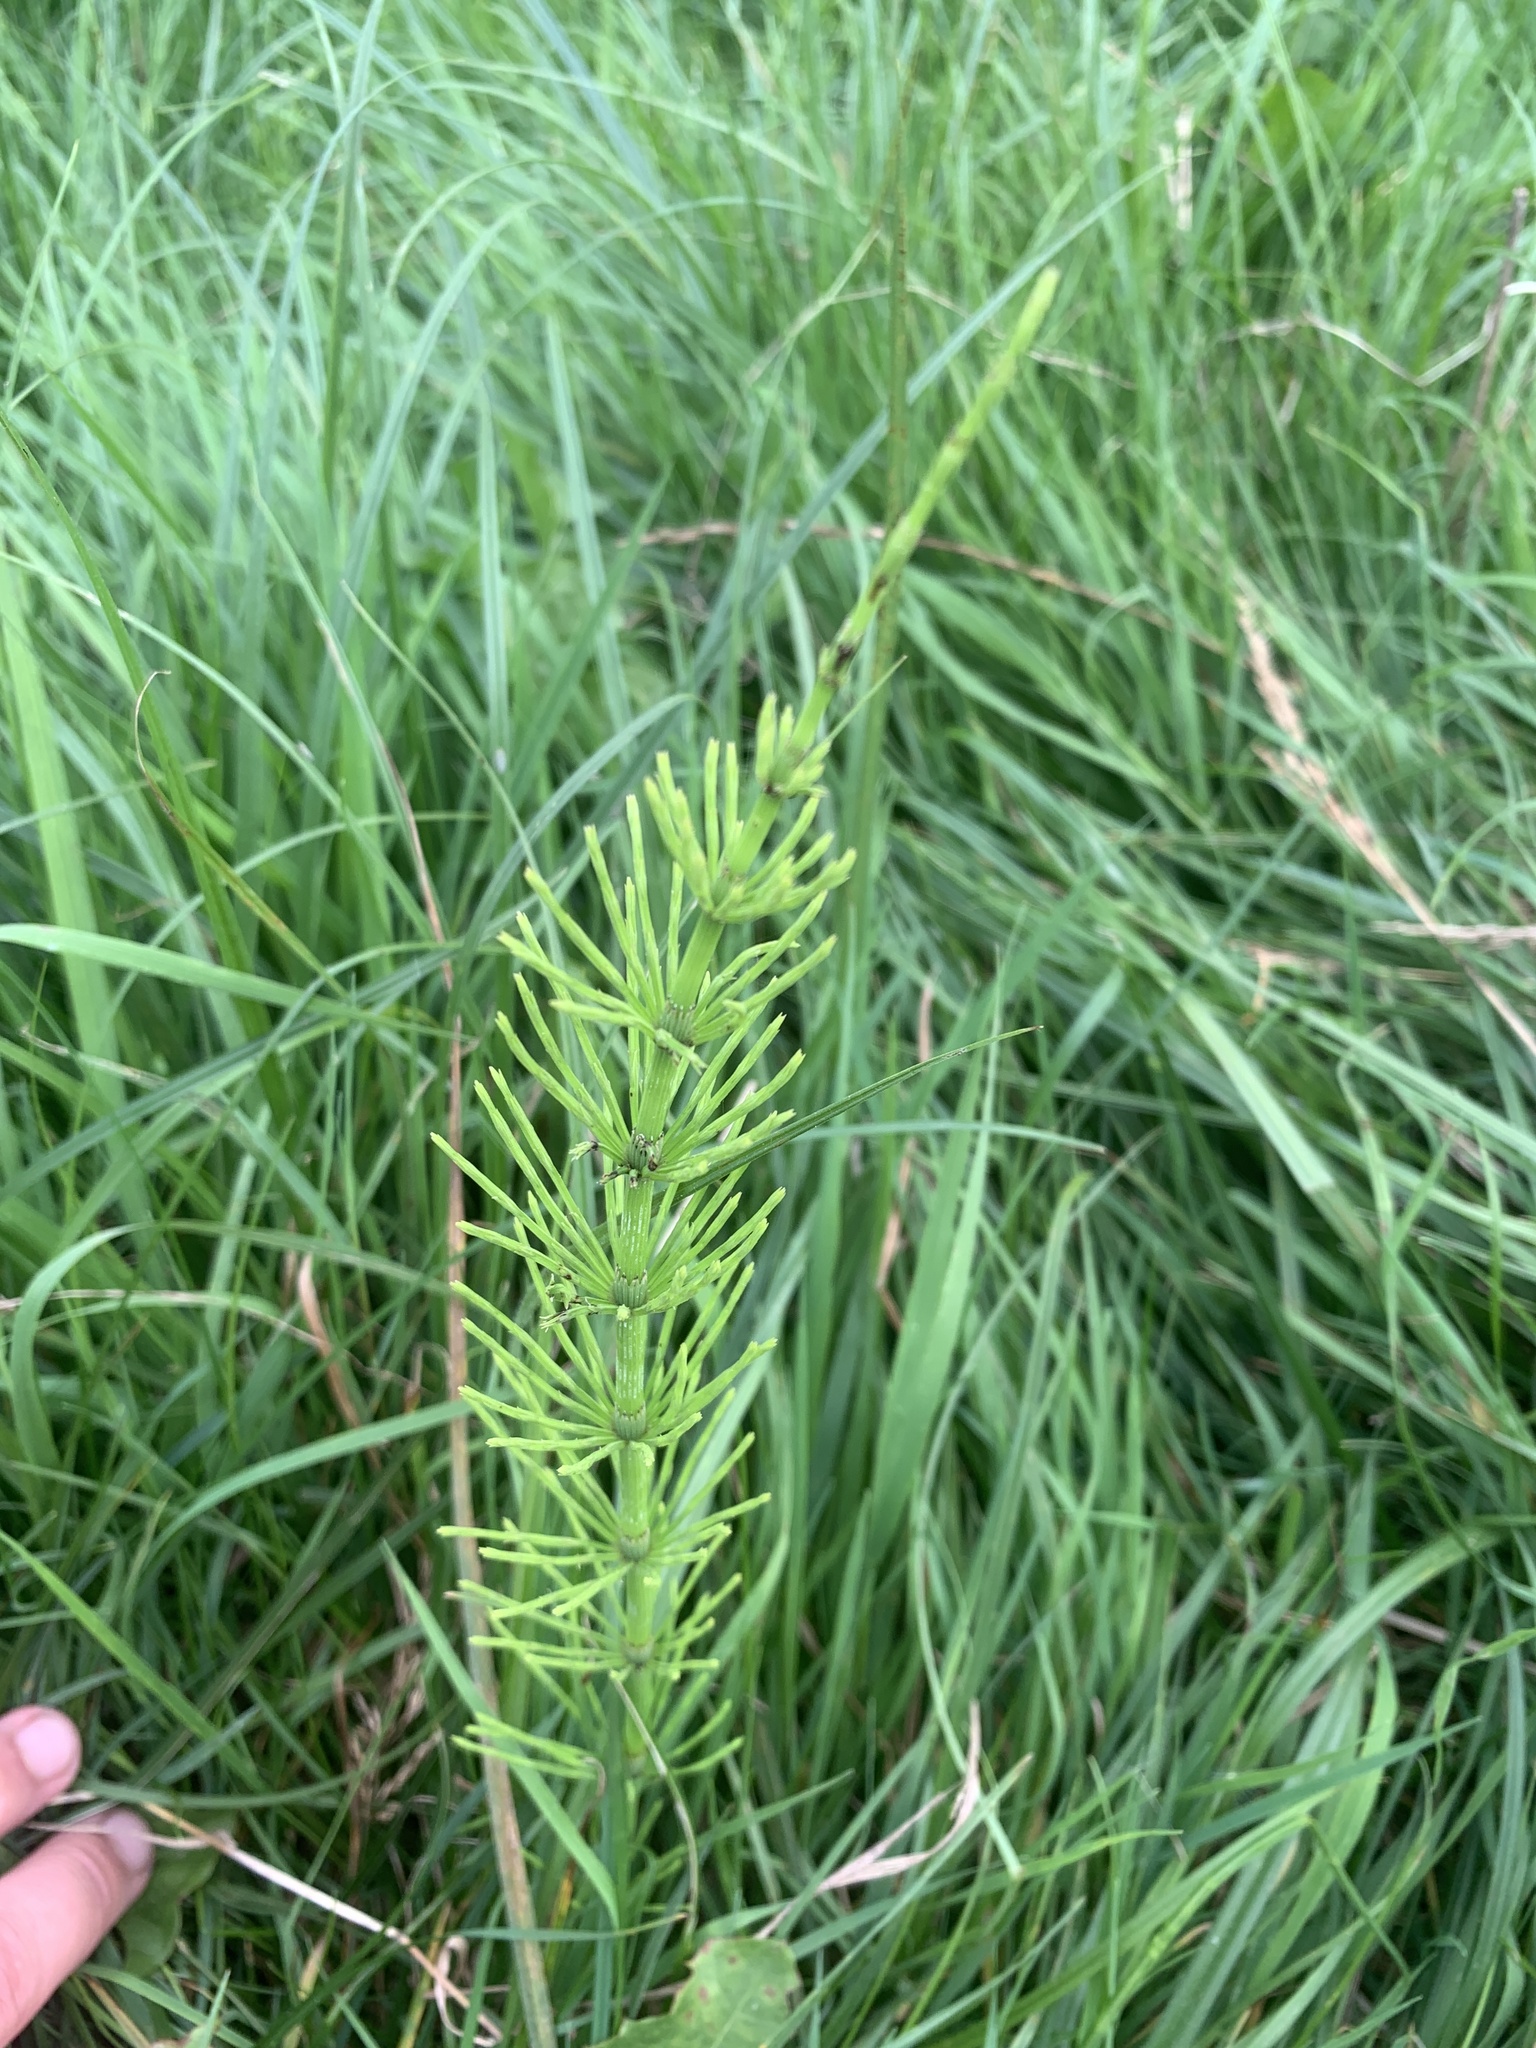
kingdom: Plantae
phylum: Tracheophyta
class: Polypodiopsida
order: Equisetales
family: Equisetaceae
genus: Equisetum
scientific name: Equisetum arvense
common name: Field horsetail
